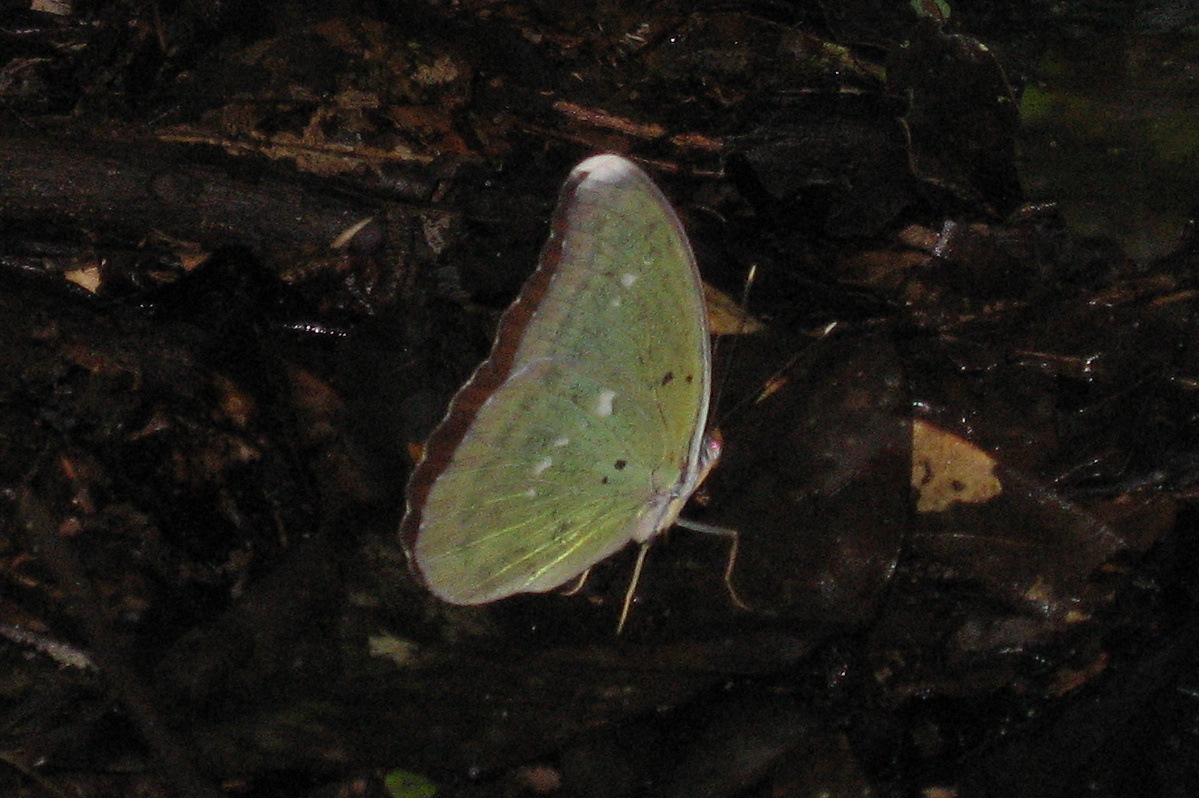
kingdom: Animalia
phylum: Arthropoda
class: Insecta
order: Lepidoptera
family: Nymphalidae
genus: Euphaedra
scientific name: Euphaedra eupalus
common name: Western blue-banded forester
